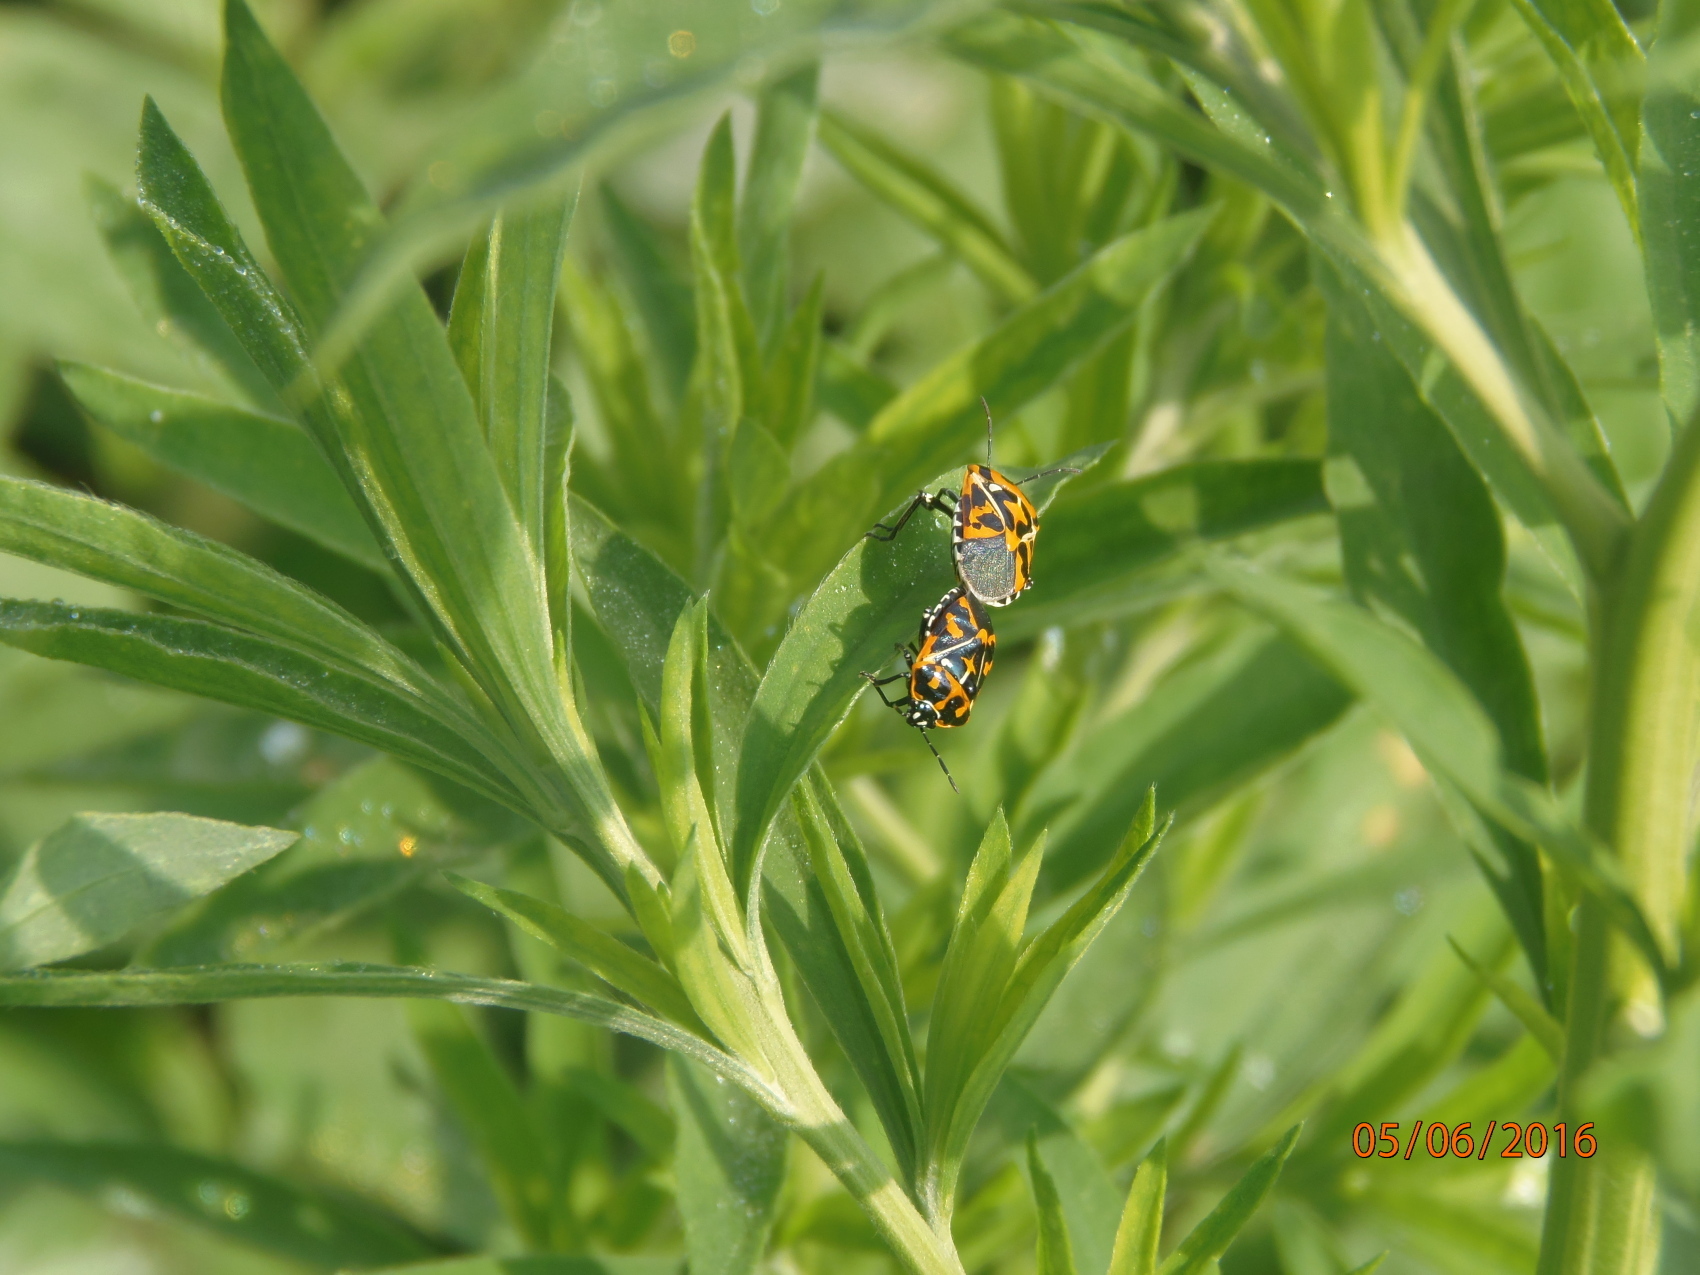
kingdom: Animalia
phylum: Arthropoda
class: Insecta
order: Hemiptera
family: Pentatomidae
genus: Murgantia
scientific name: Murgantia histrionica
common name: Harlequin bug
